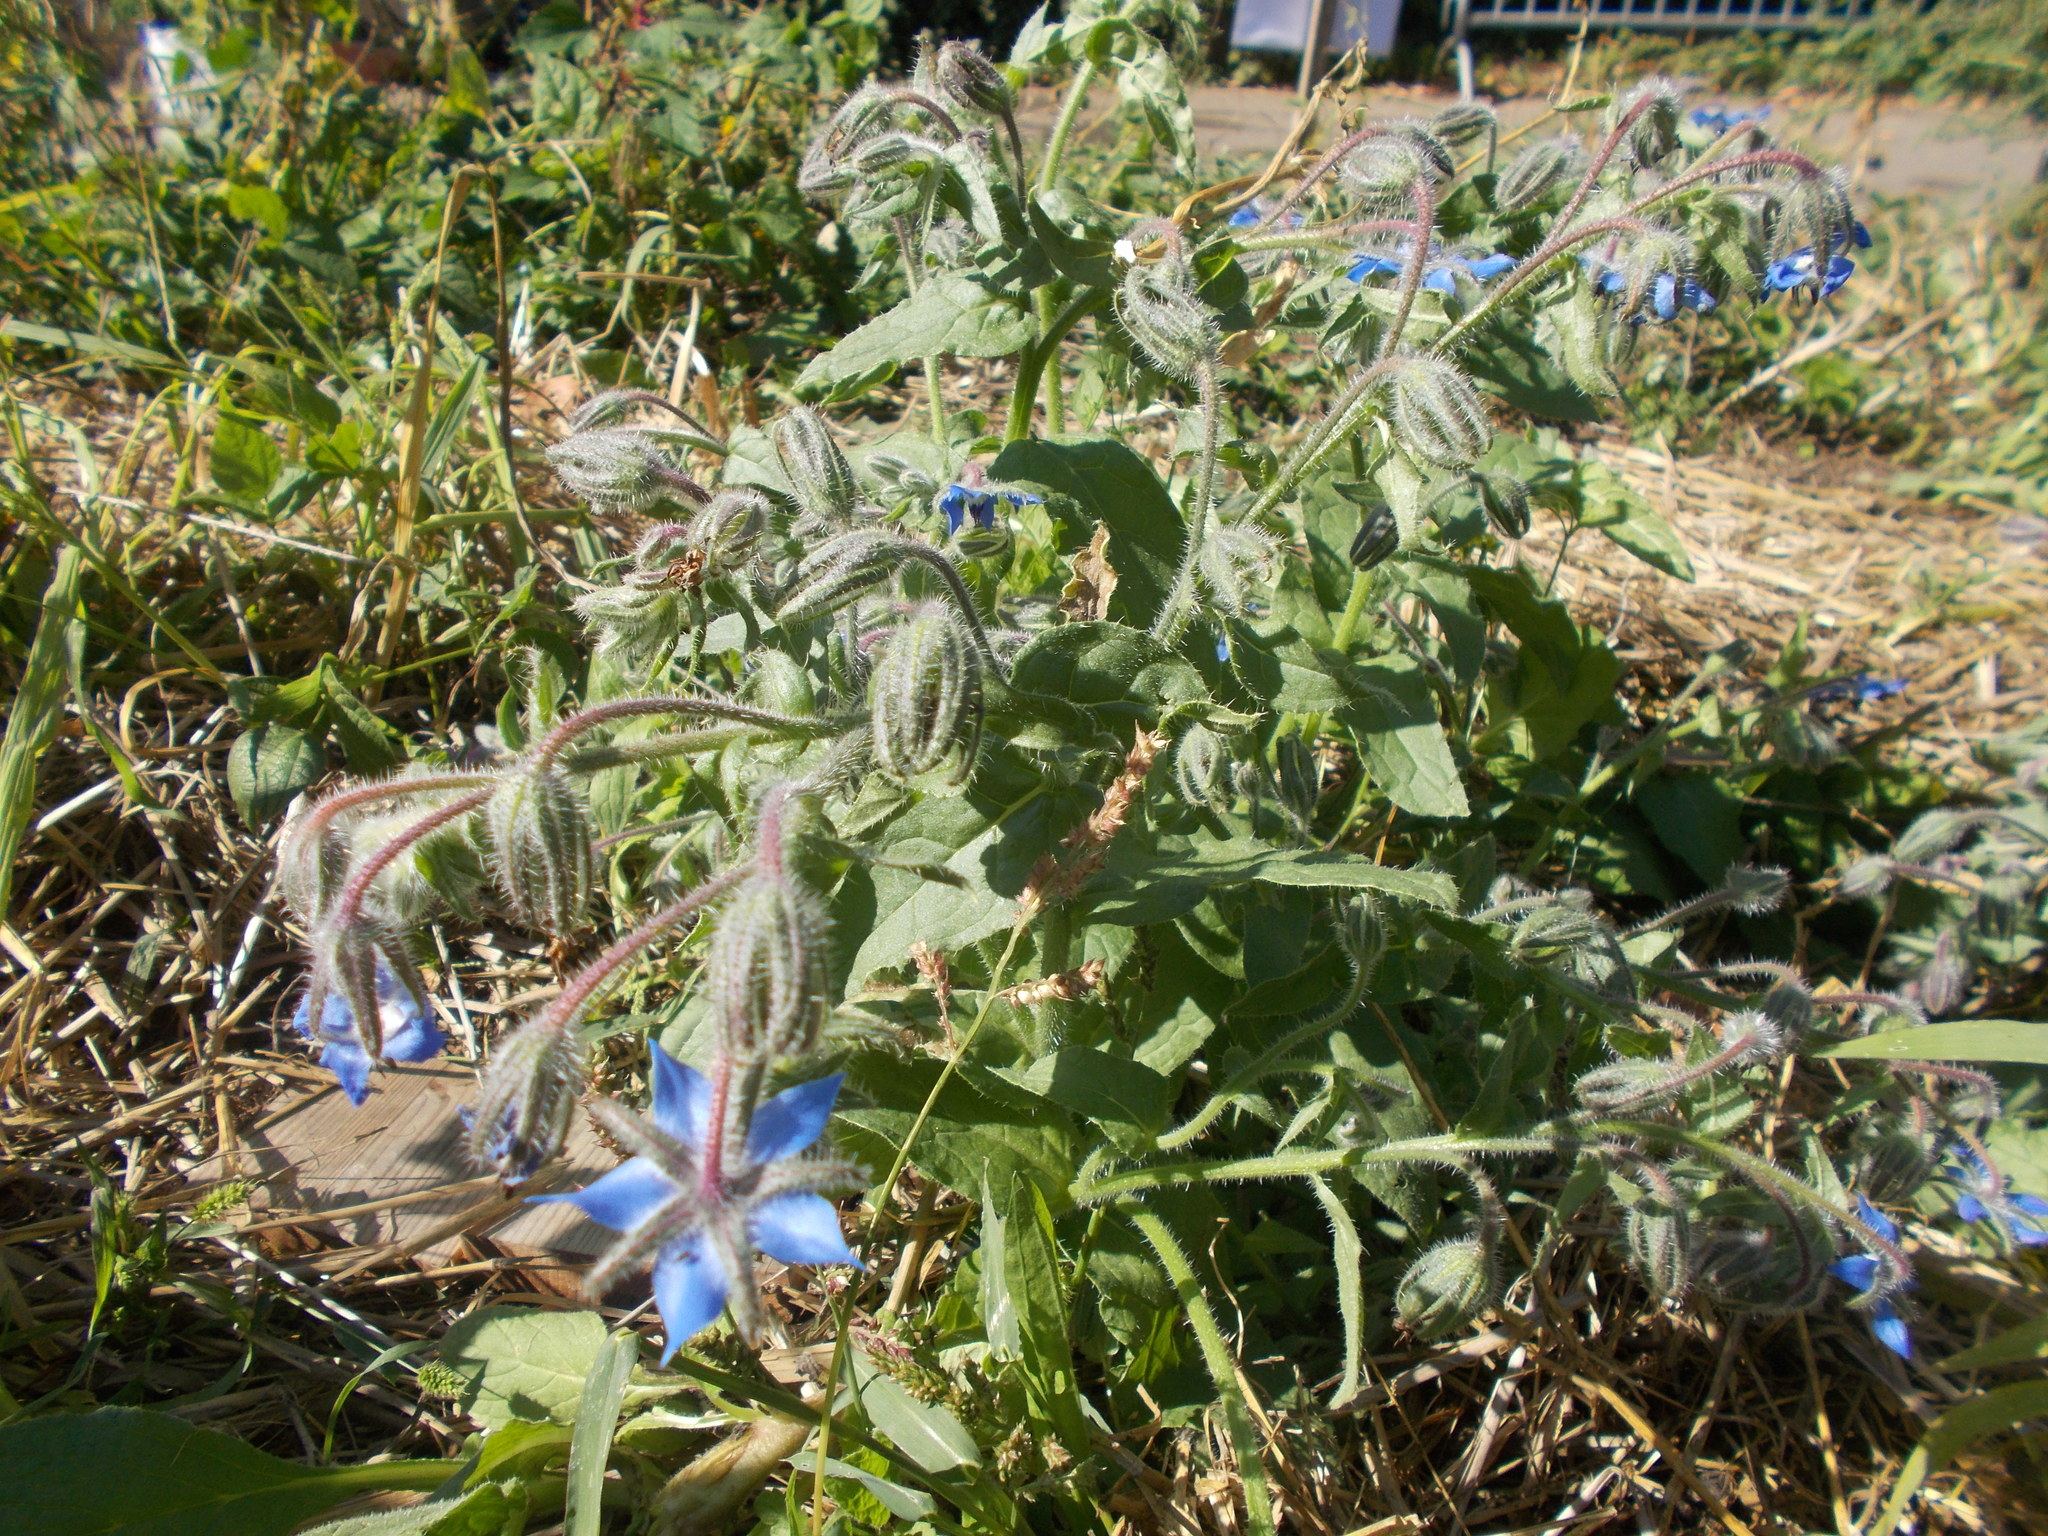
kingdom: Plantae
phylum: Tracheophyta
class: Magnoliopsida
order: Boraginales
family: Boraginaceae
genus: Borago
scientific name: Borago officinalis
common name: Borage
